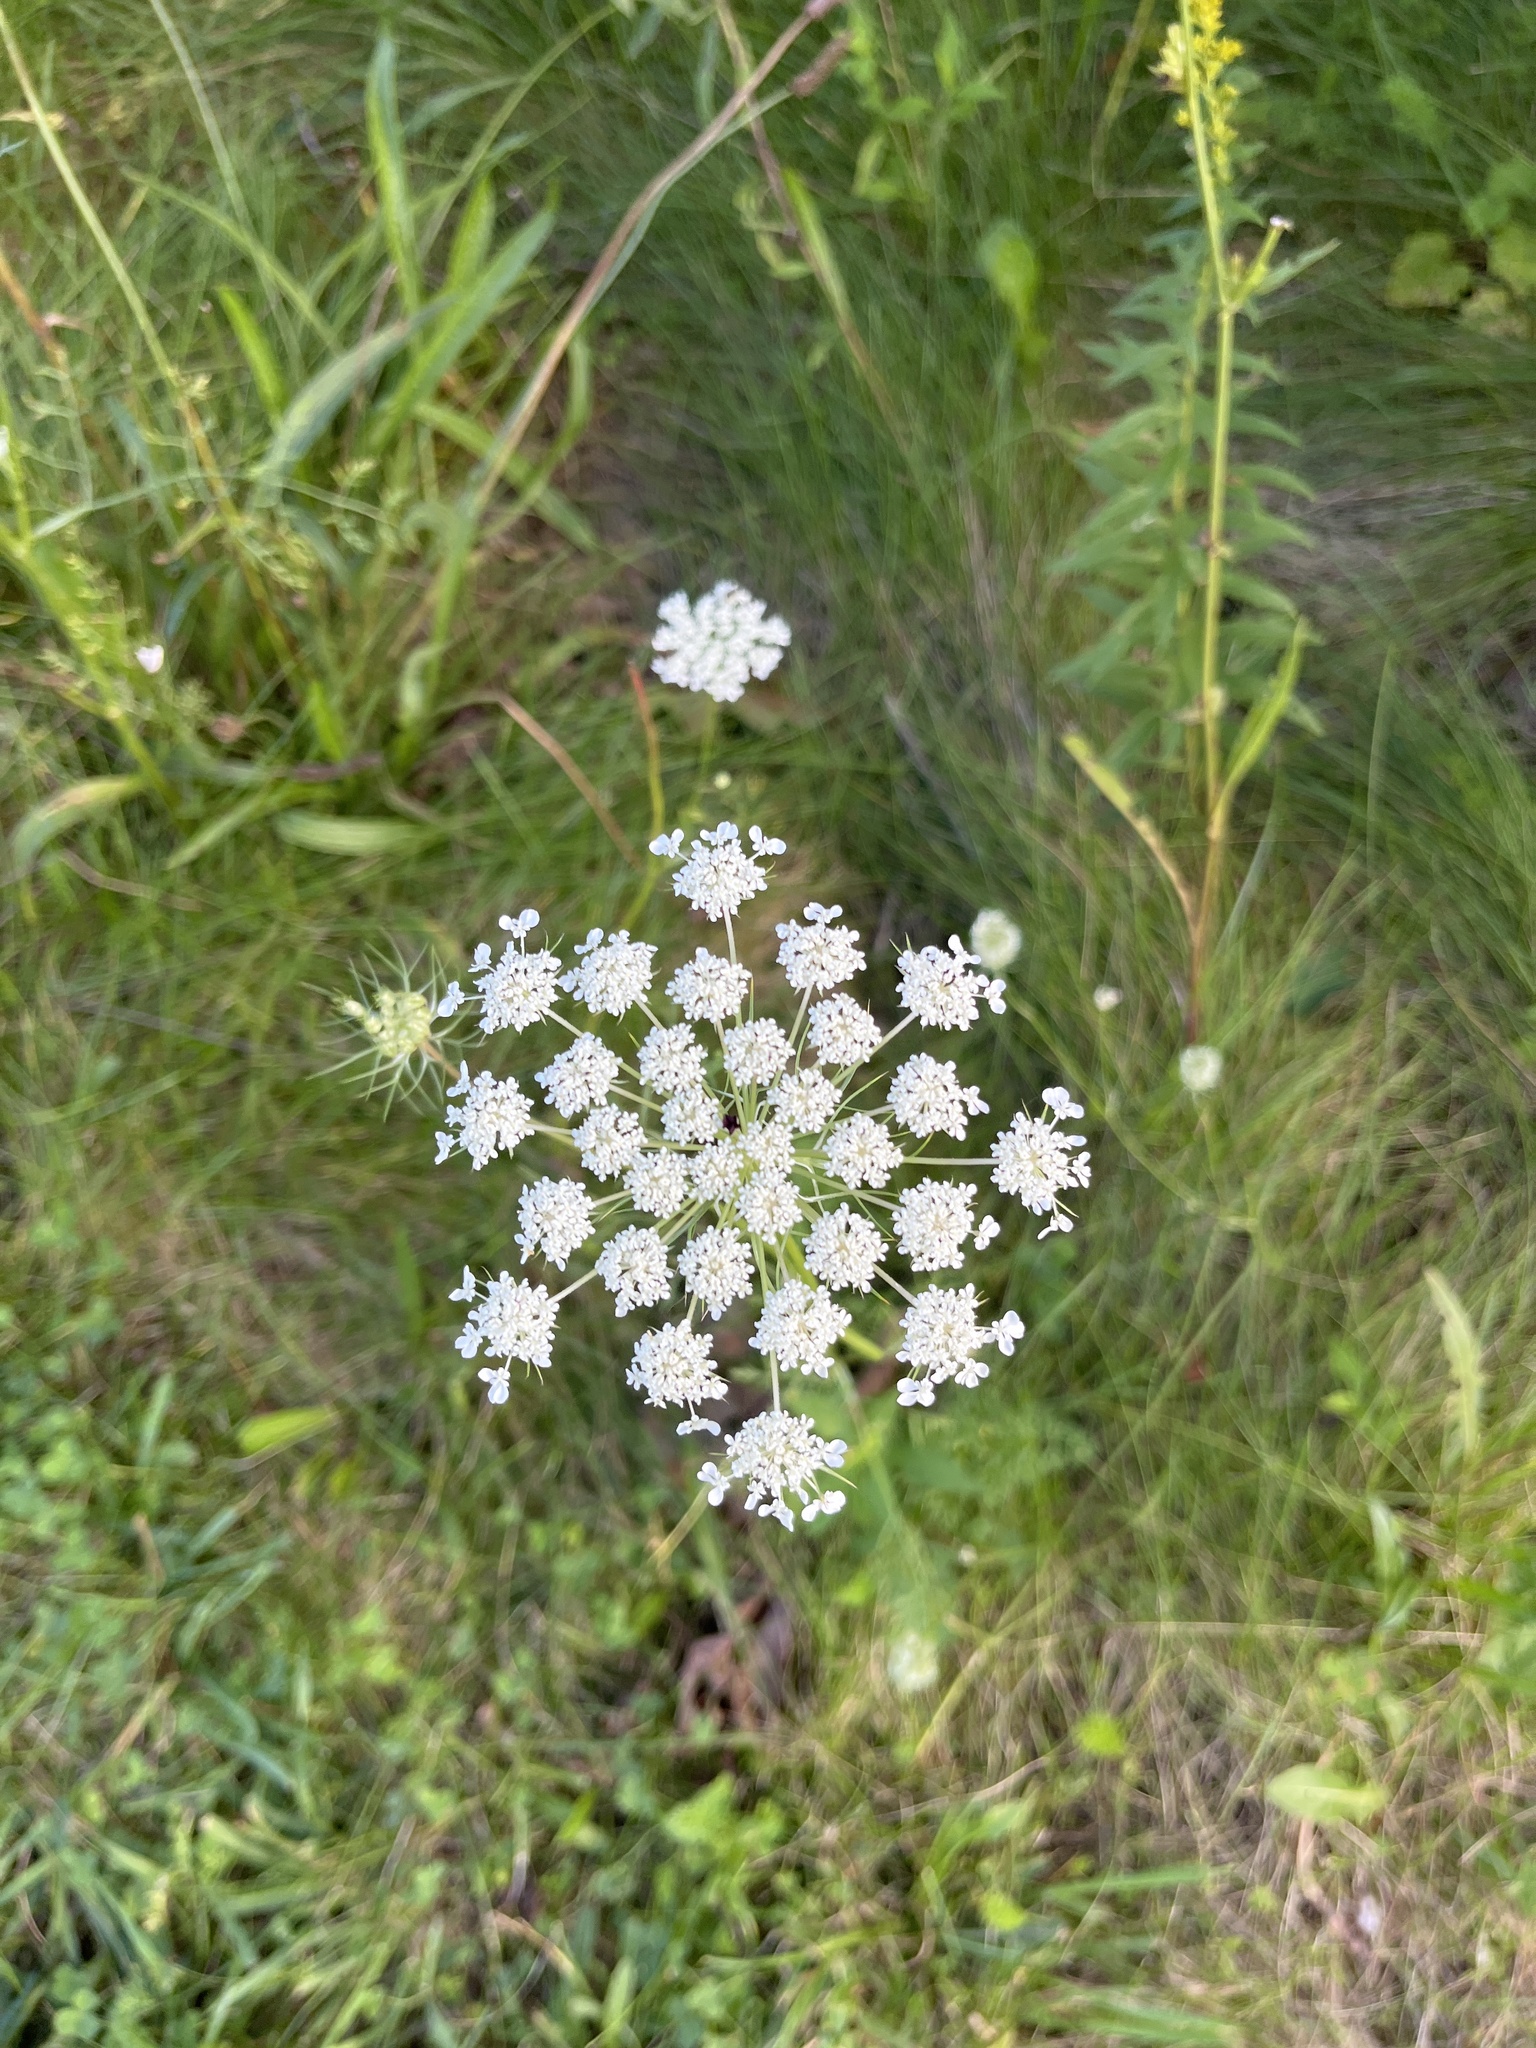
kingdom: Plantae
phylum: Tracheophyta
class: Magnoliopsida
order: Apiales
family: Apiaceae
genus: Daucus
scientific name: Daucus carota
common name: Wild carrot
